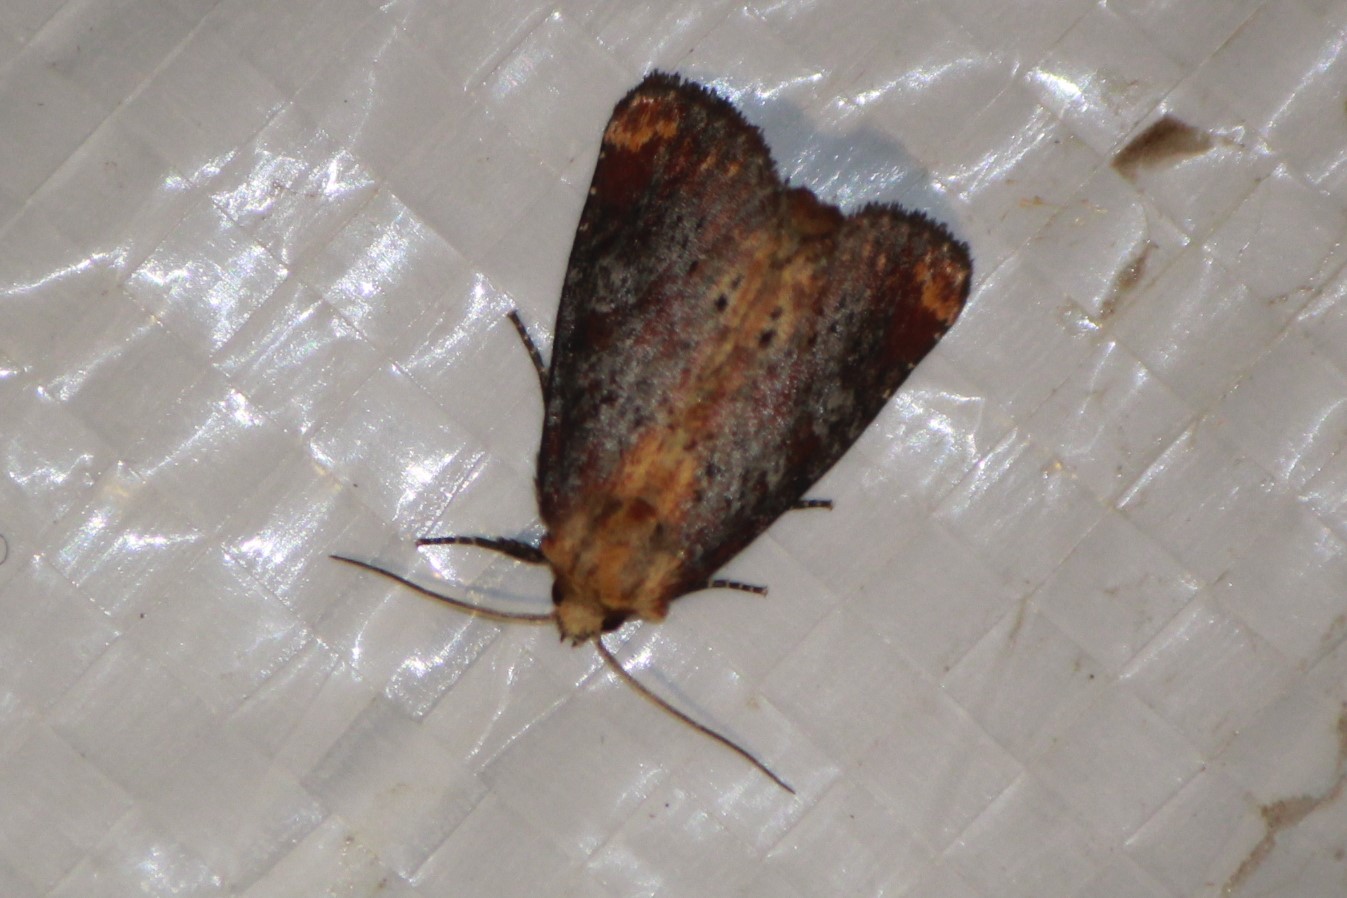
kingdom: Animalia
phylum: Arthropoda
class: Insecta
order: Lepidoptera
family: Noctuidae
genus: Achatodes
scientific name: Achatodes zeae
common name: Elder shoot borer
